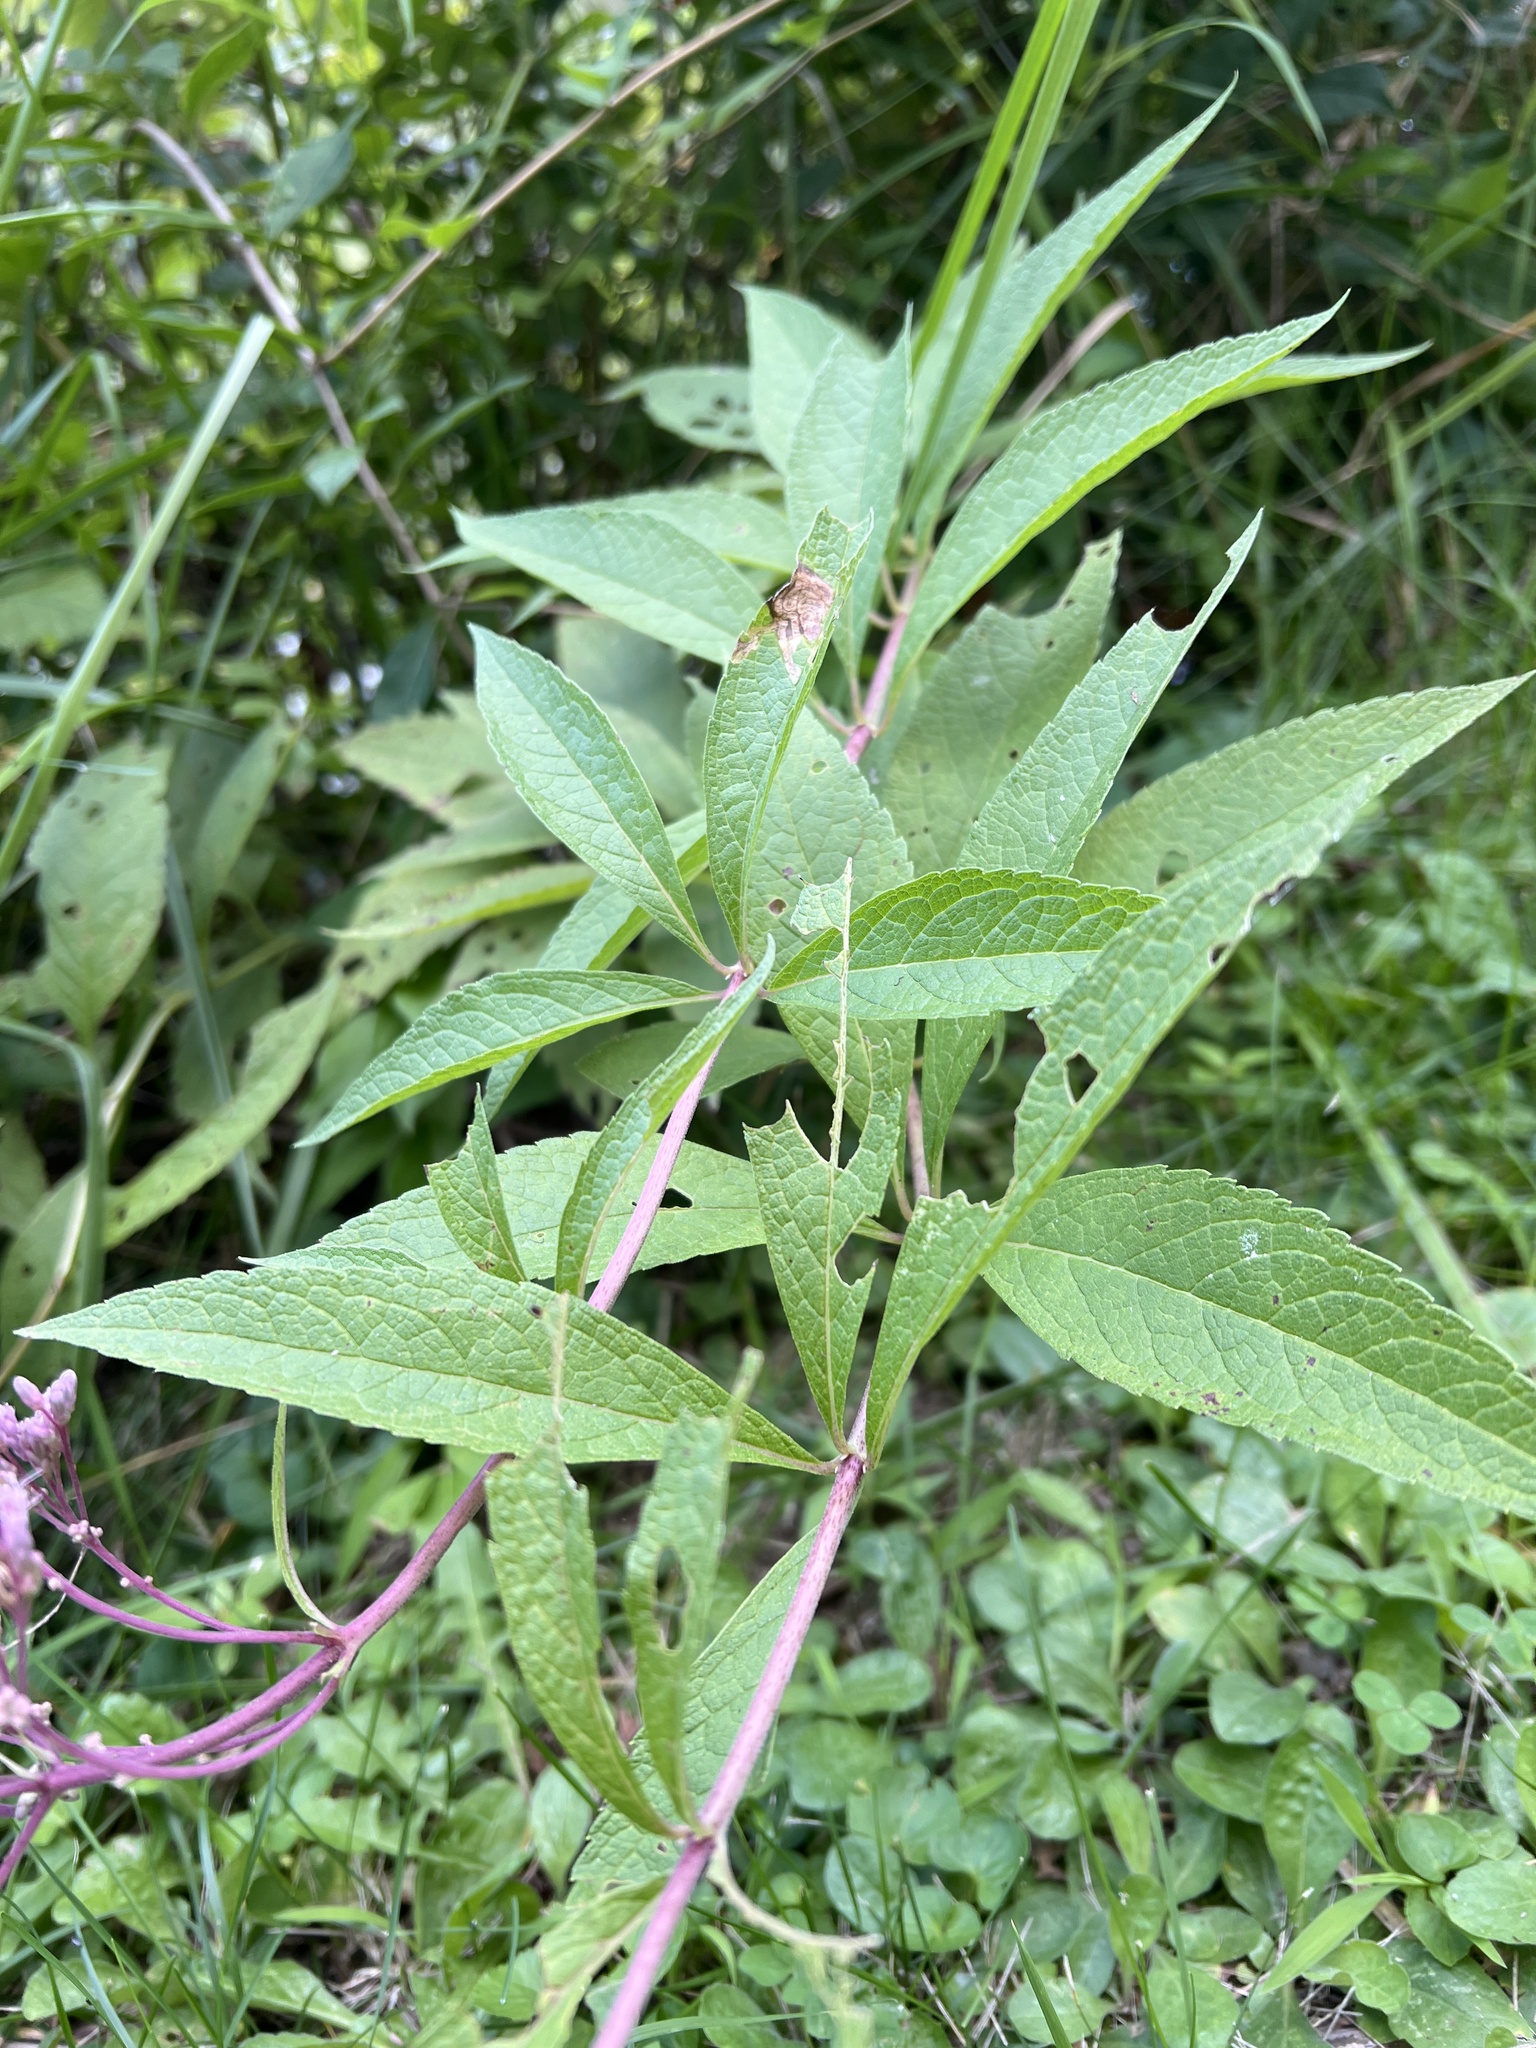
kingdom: Plantae
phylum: Tracheophyta
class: Magnoliopsida
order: Asterales
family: Asteraceae
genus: Eutrochium
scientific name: Eutrochium maculatum
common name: Spotted joe pye weed
